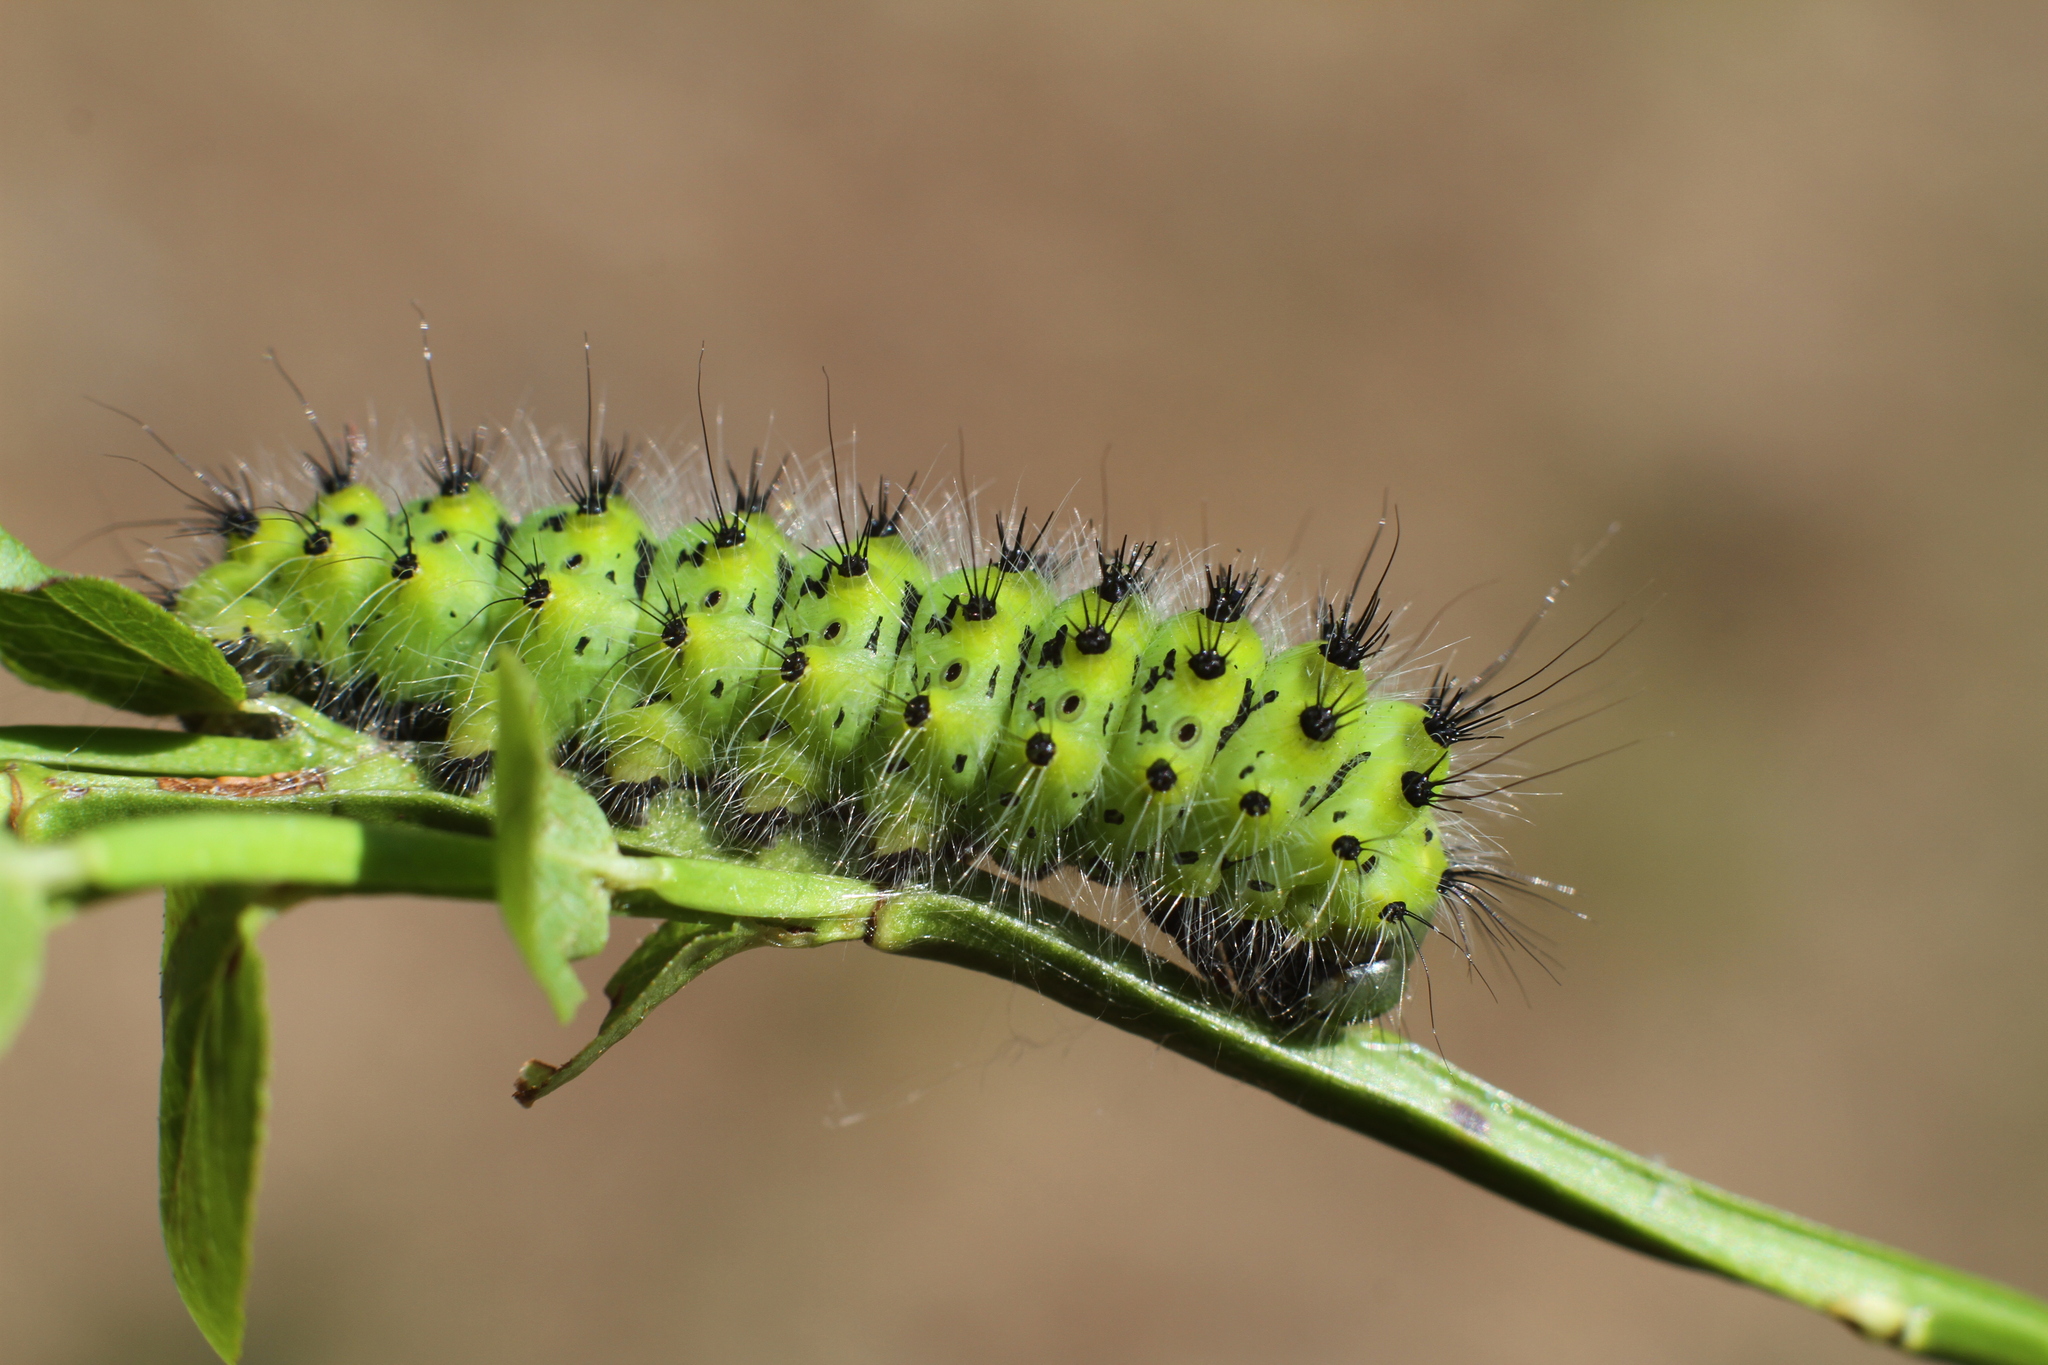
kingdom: Animalia
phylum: Arthropoda
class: Insecta
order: Lepidoptera
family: Saturniidae
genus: Saturnia
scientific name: Saturnia pavonia
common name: Emperor moth
